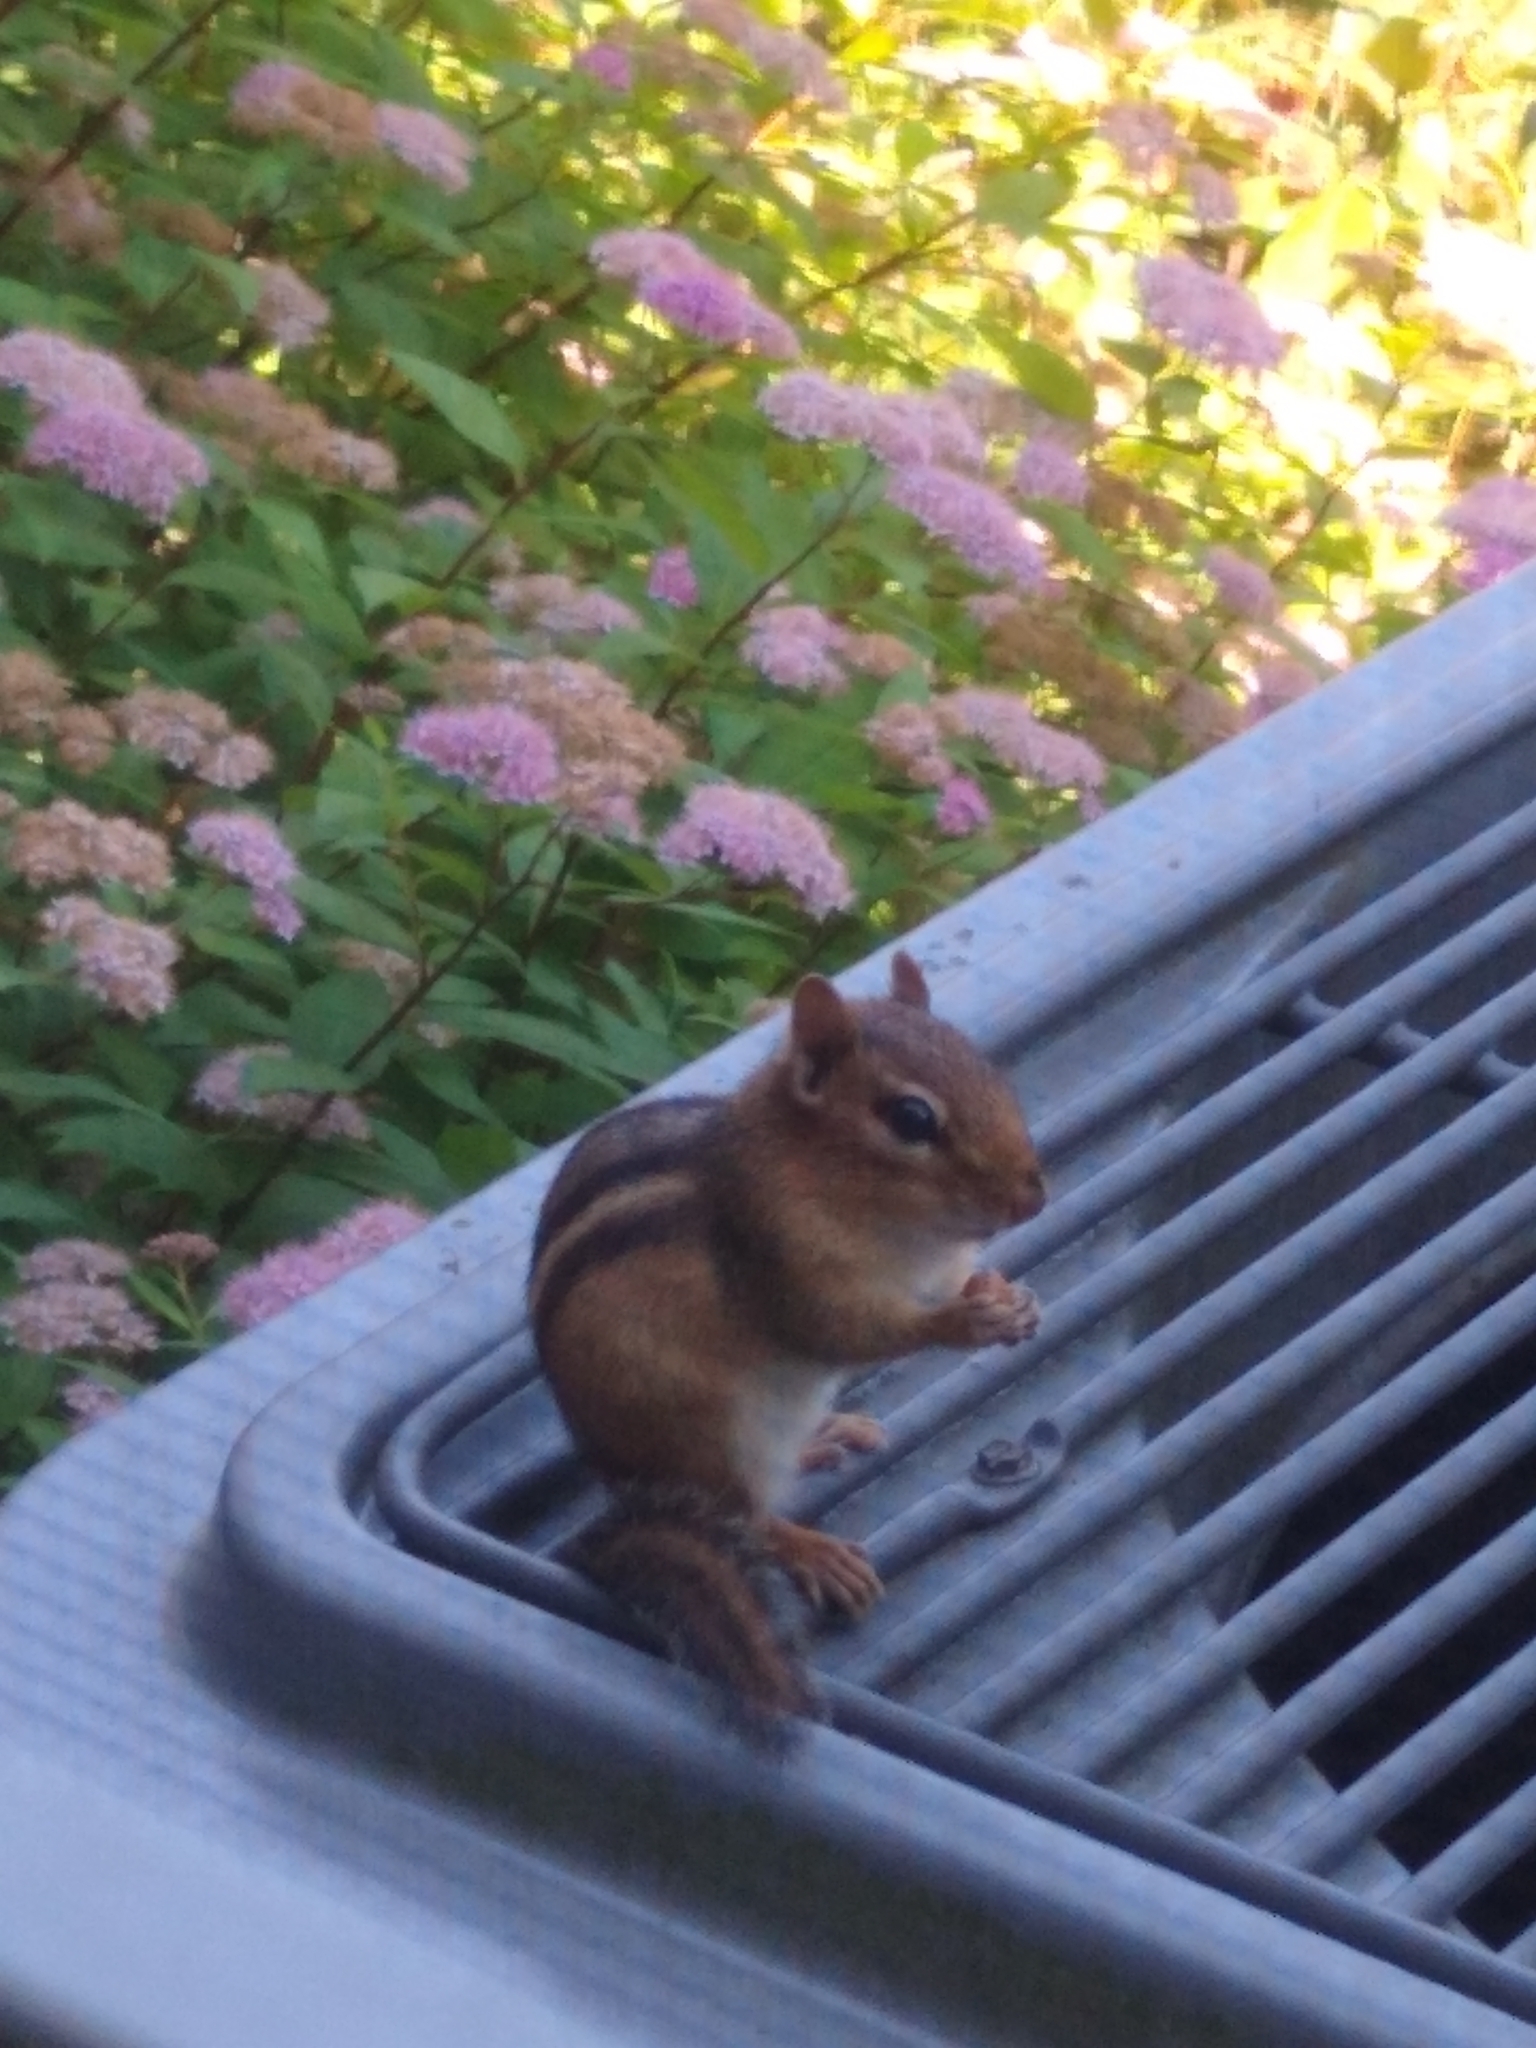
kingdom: Animalia
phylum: Chordata
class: Mammalia
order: Rodentia
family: Sciuridae
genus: Tamias
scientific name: Tamias striatus
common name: Eastern chipmunk
